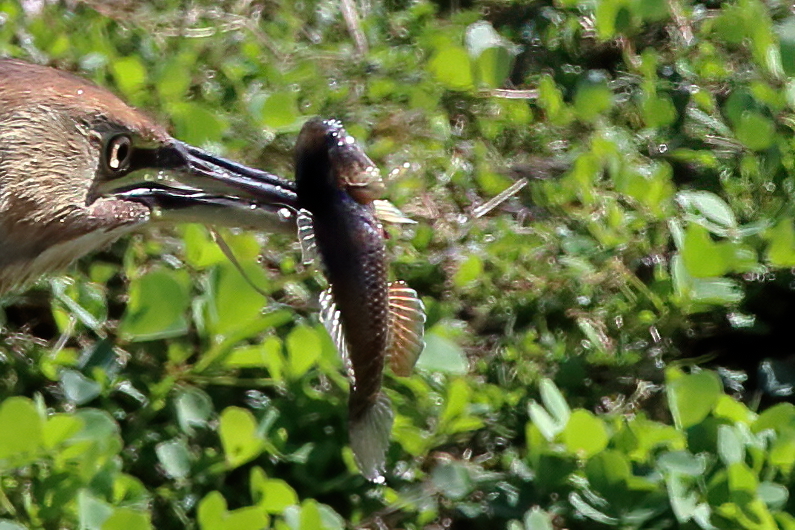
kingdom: Animalia
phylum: Chordata
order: Perciformes
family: Eleotridae
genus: Dormitator
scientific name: Dormitator maculatus
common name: Fat sleeper
